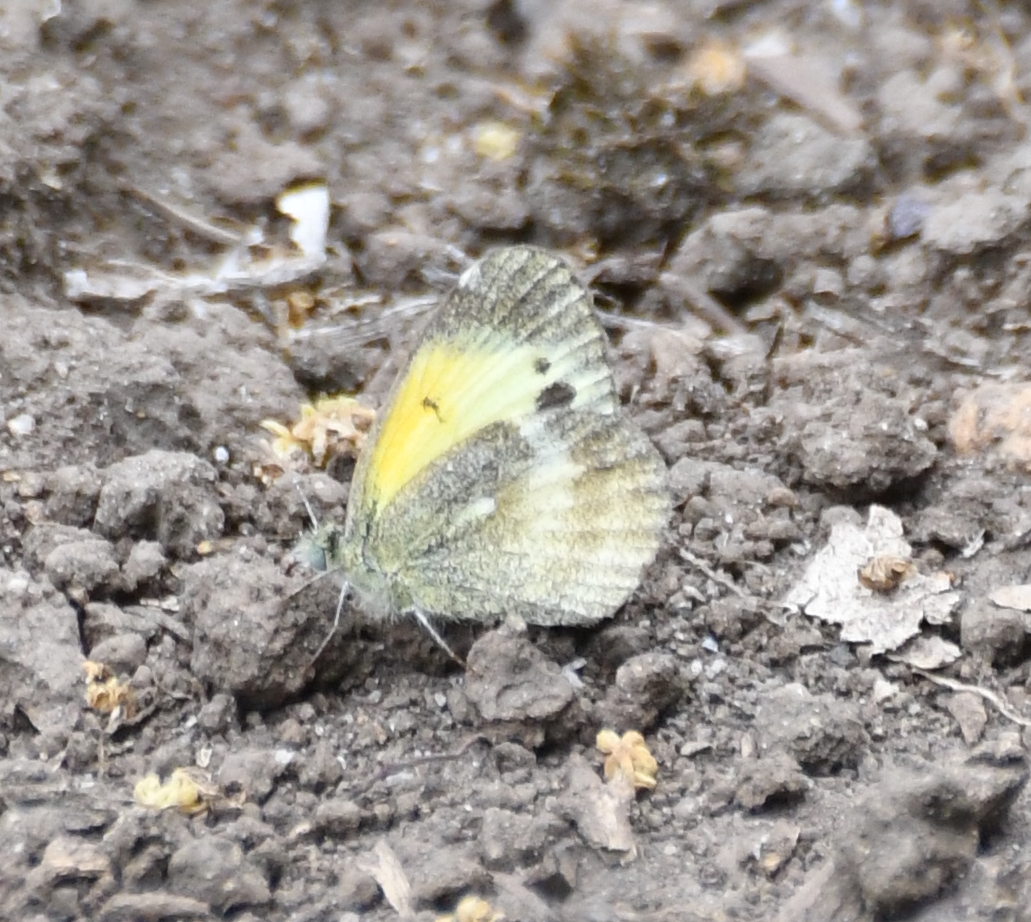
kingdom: Animalia
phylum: Arthropoda
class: Insecta
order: Lepidoptera
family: Pieridae
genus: Nathalis
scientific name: Nathalis iole
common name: Dainty sulphur
